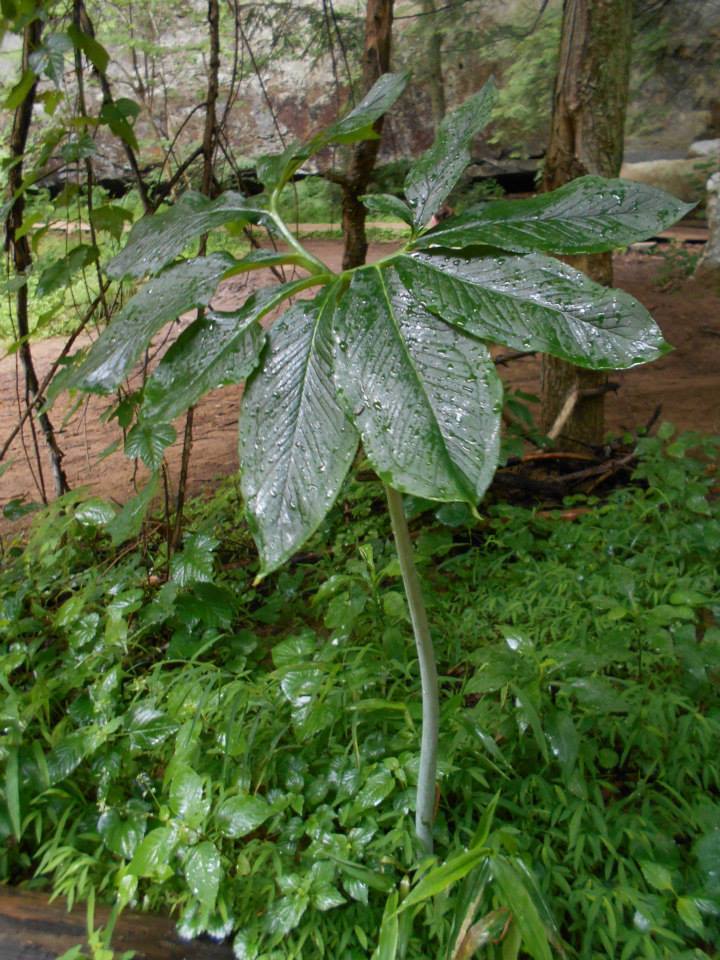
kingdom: Plantae
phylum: Tracheophyta
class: Liliopsida
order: Alismatales
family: Araceae
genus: Arisaema
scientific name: Arisaema dracontium
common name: Dragon-arum
